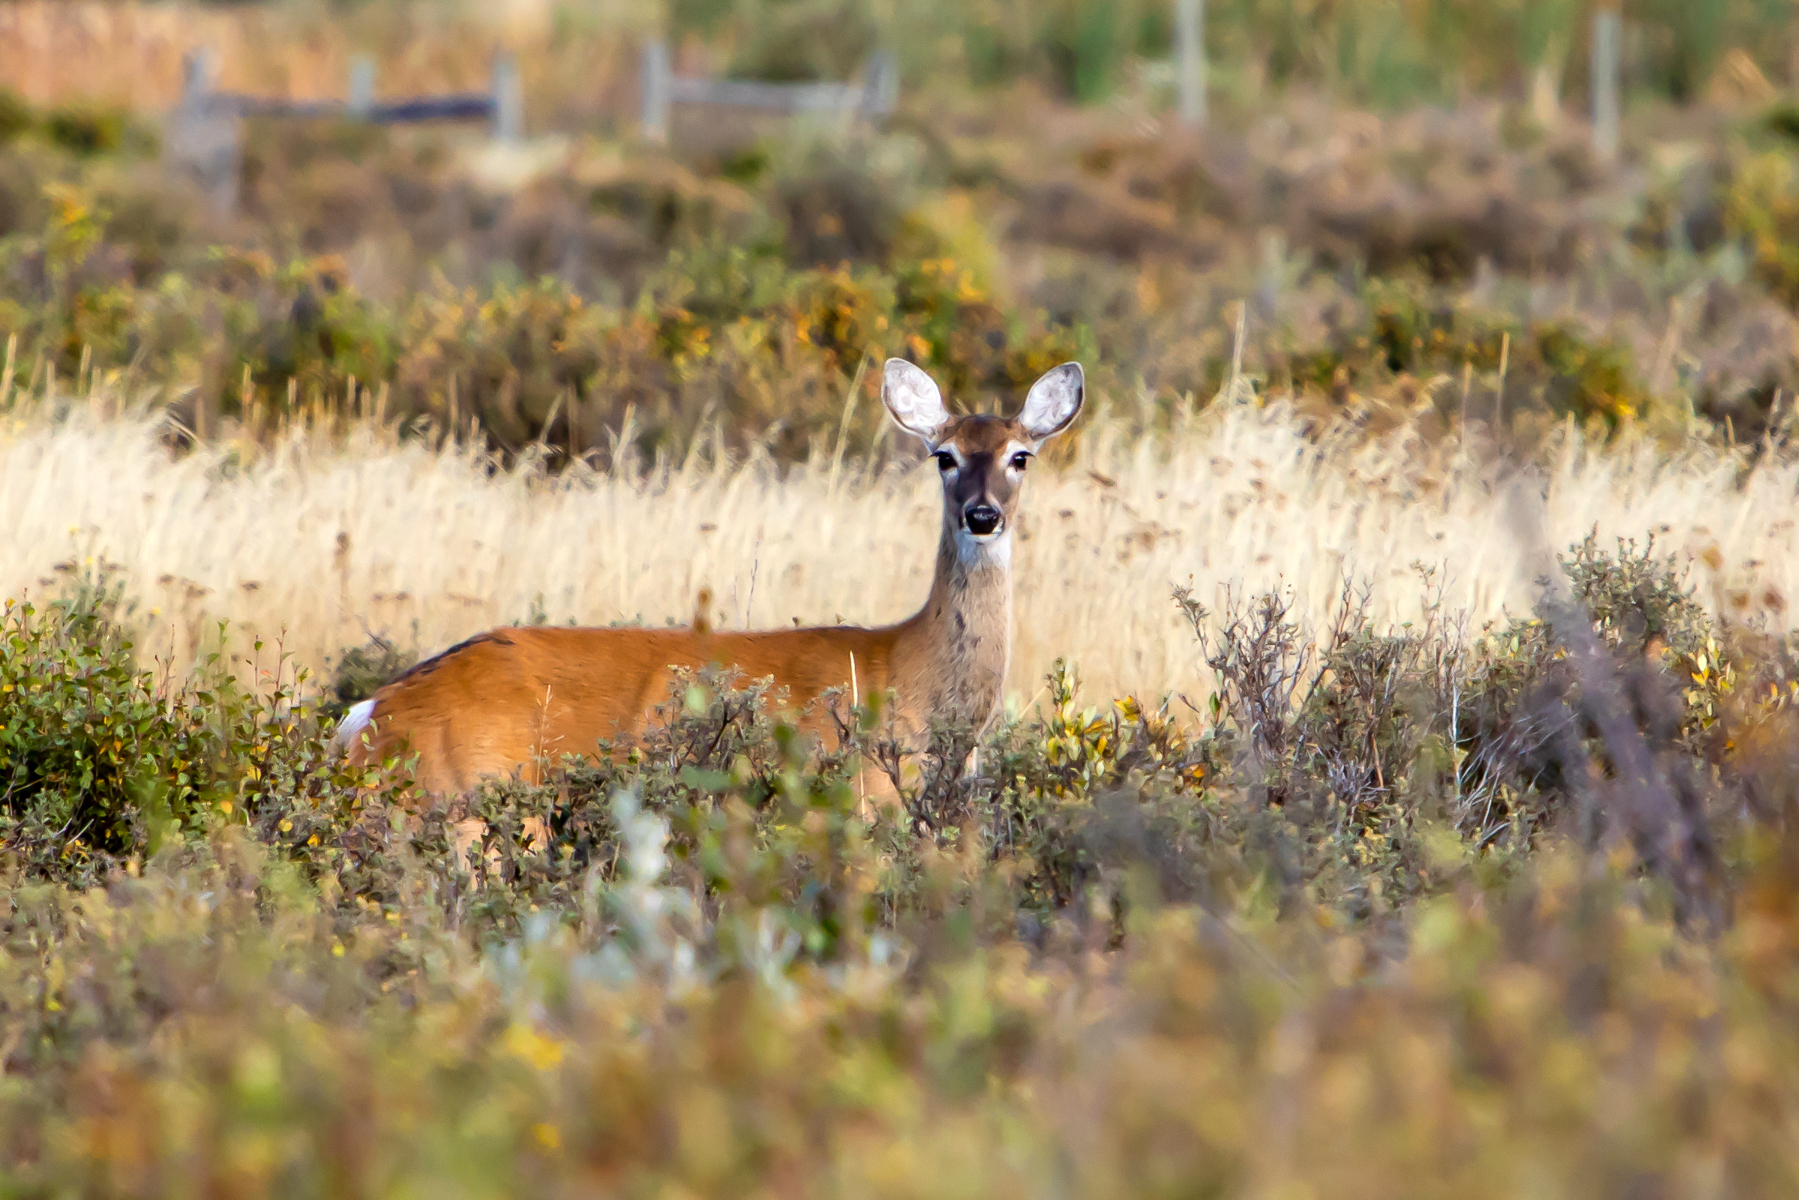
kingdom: Animalia
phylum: Chordata
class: Mammalia
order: Artiodactyla
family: Cervidae
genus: Odocoileus
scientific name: Odocoileus virginianus
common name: White-tailed deer
